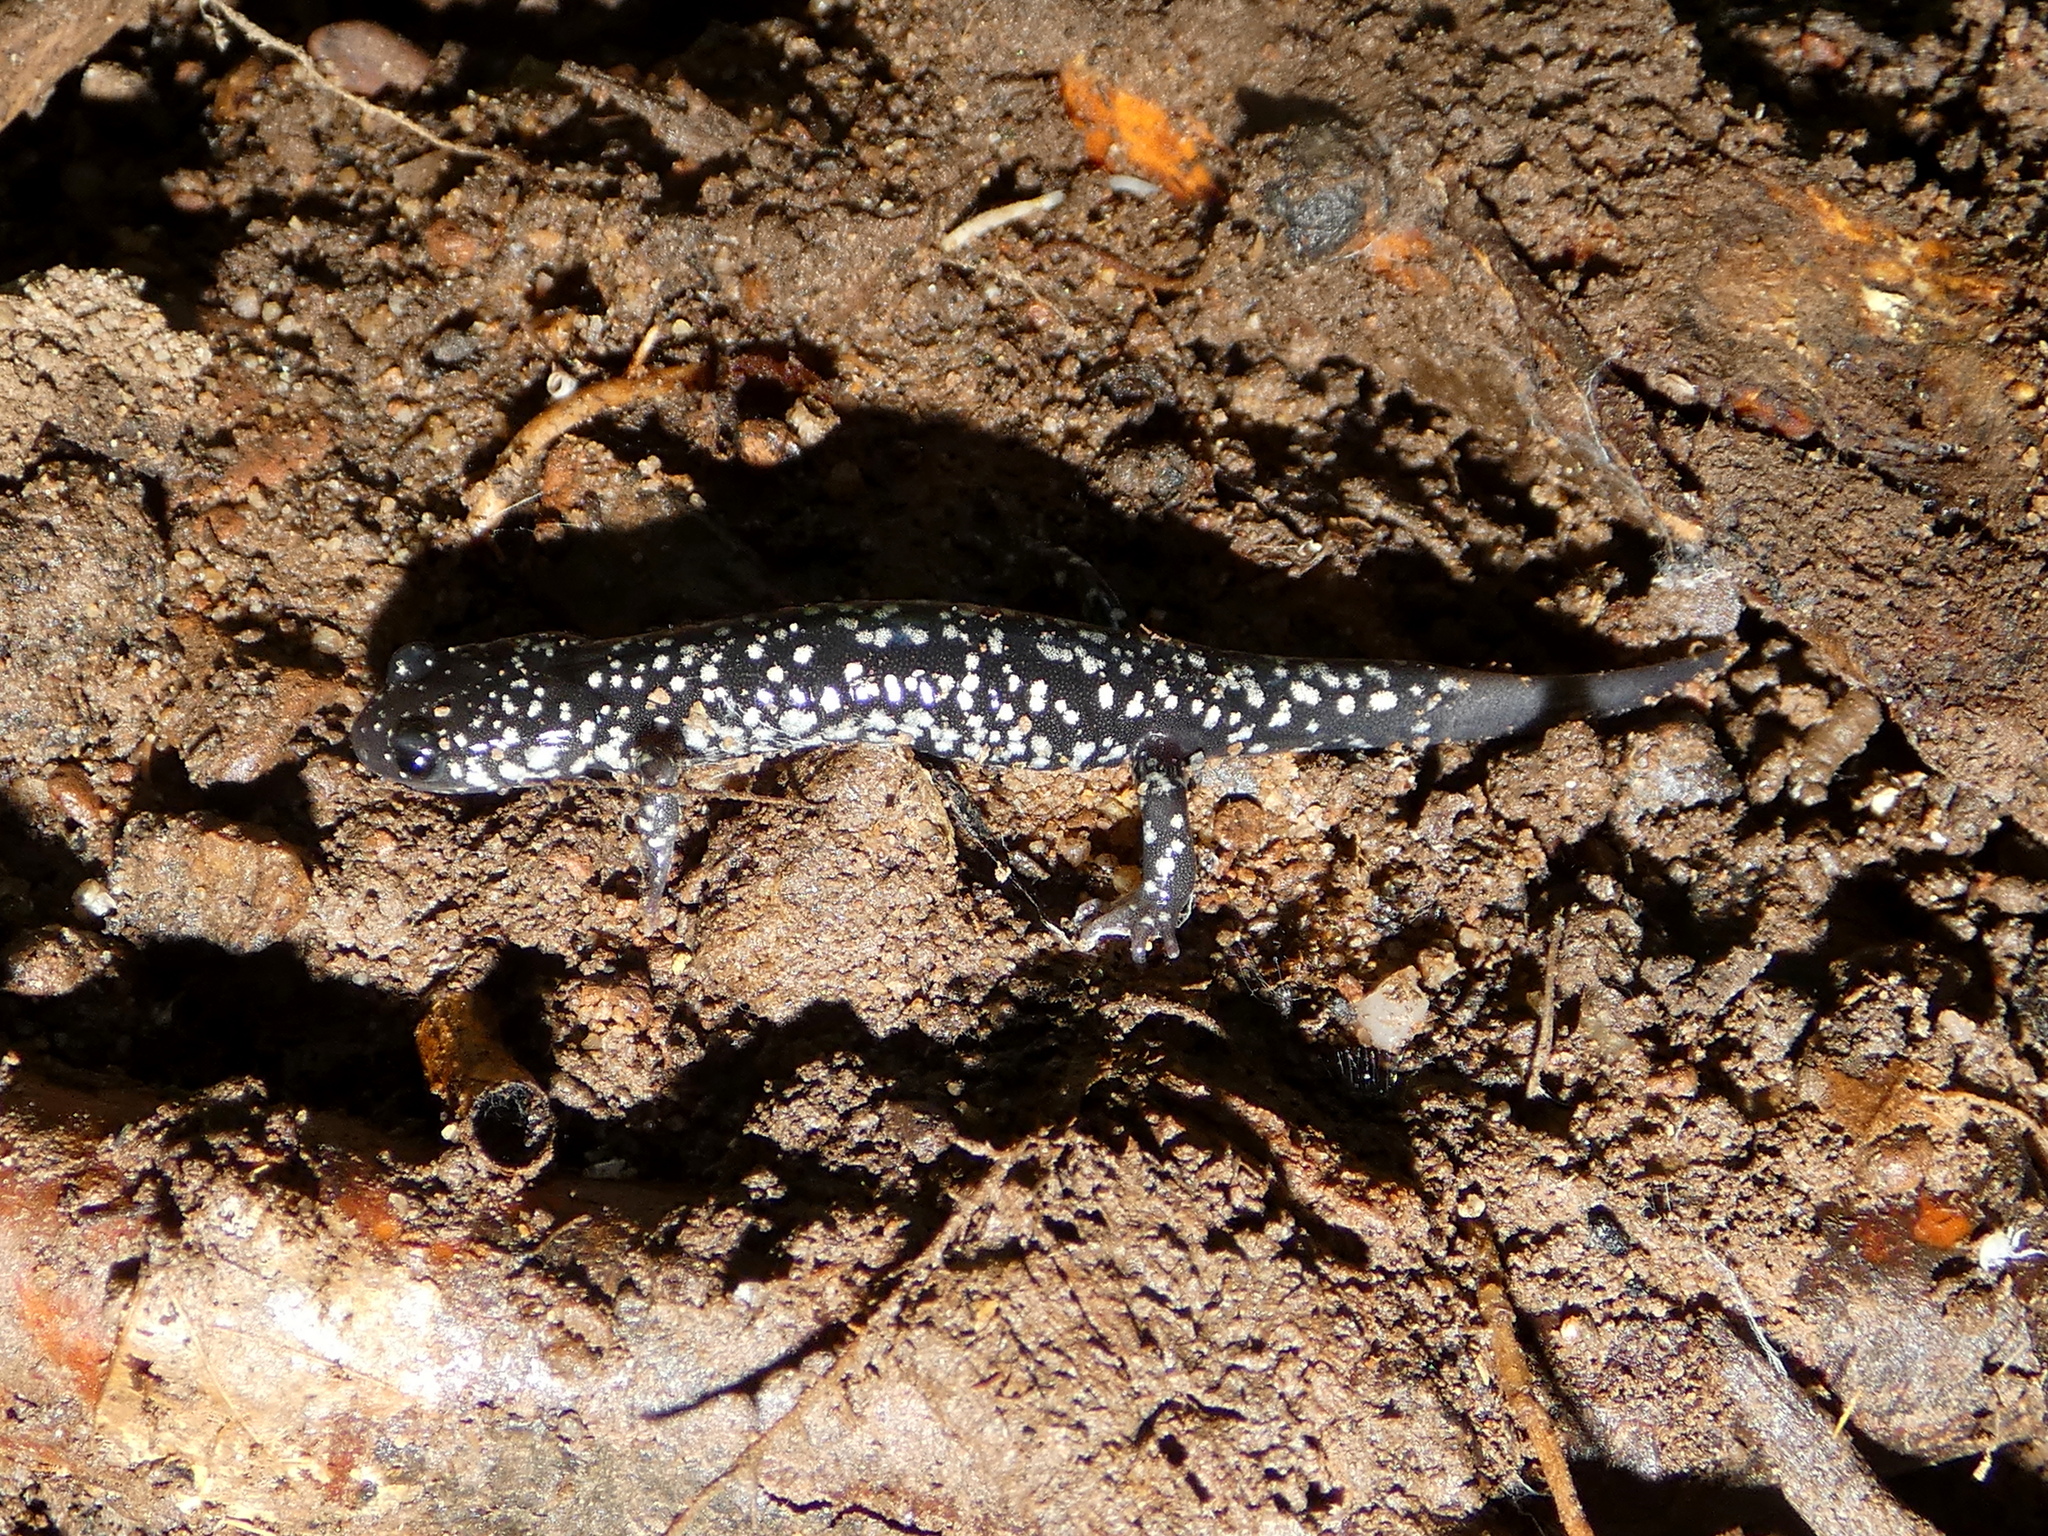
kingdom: Animalia
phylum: Chordata
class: Amphibia
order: Caudata
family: Plethodontidae
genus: Plethodon
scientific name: Plethodon glutinosus
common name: Northern slimy salamander
